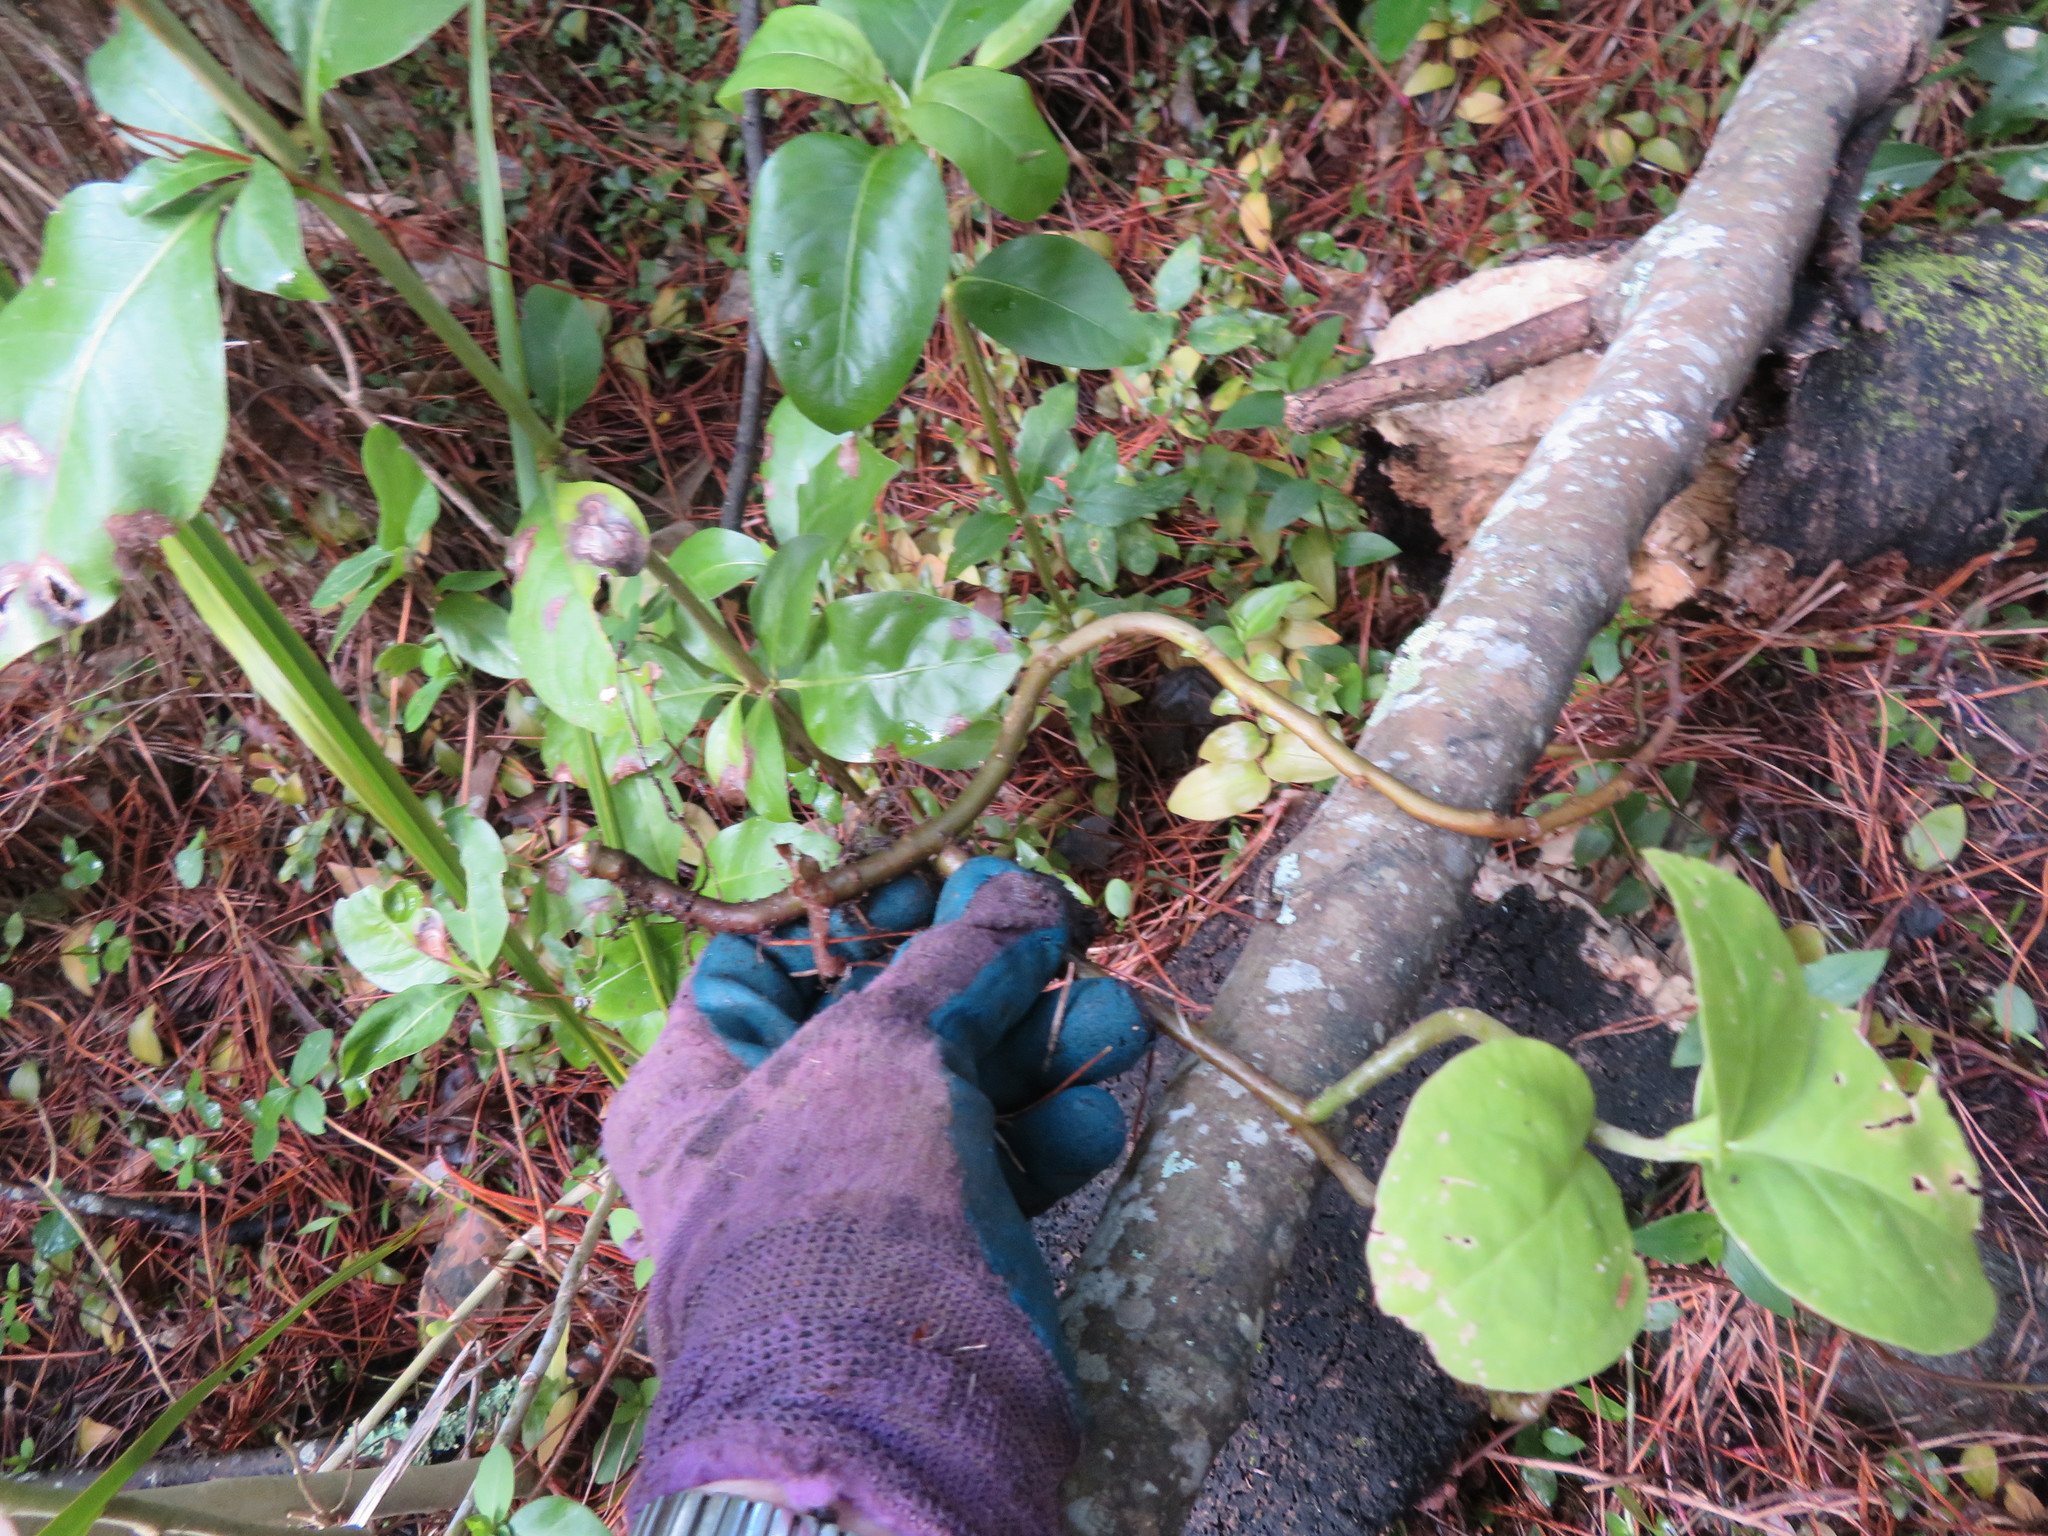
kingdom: Plantae
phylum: Tracheophyta
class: Magnoliopsida
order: Caryophyllales
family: Basellaceae
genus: Anredera
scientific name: Anredera cordifolia
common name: Heartleaf madeiravine
